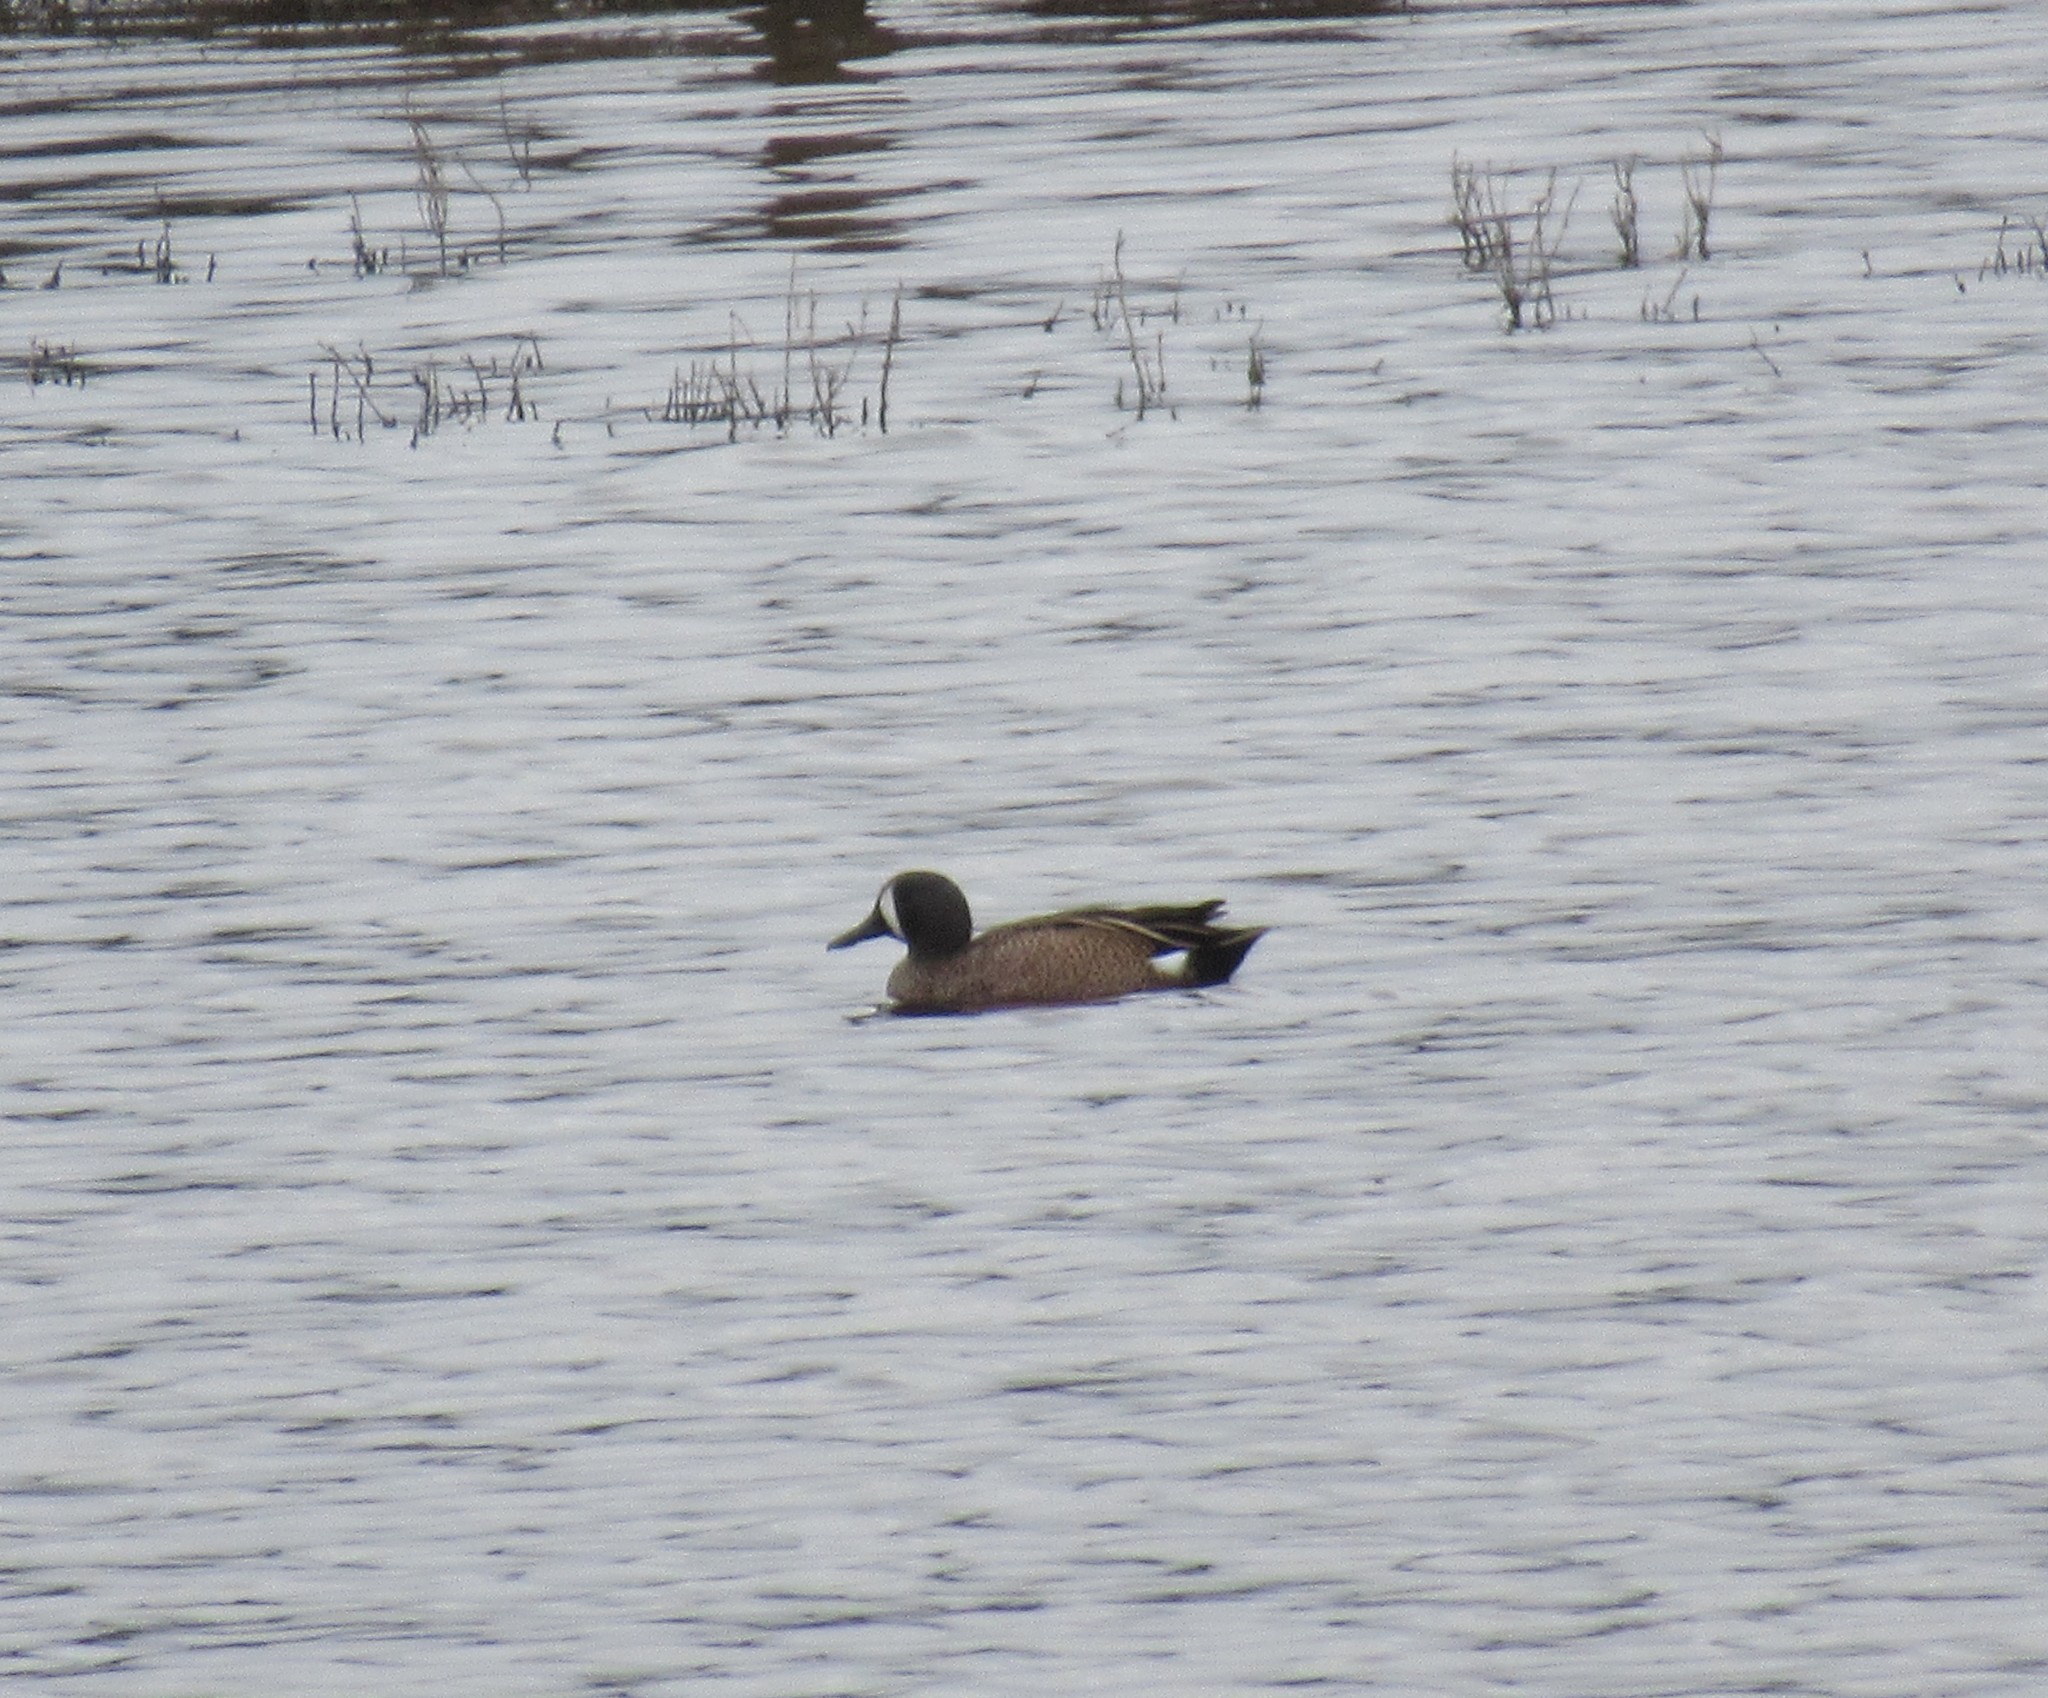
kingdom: Animalia
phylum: Chordata
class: Aves
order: Anseriformes
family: Anatidae
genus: Spatula
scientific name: Spatula discors
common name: Blue-winged teal
